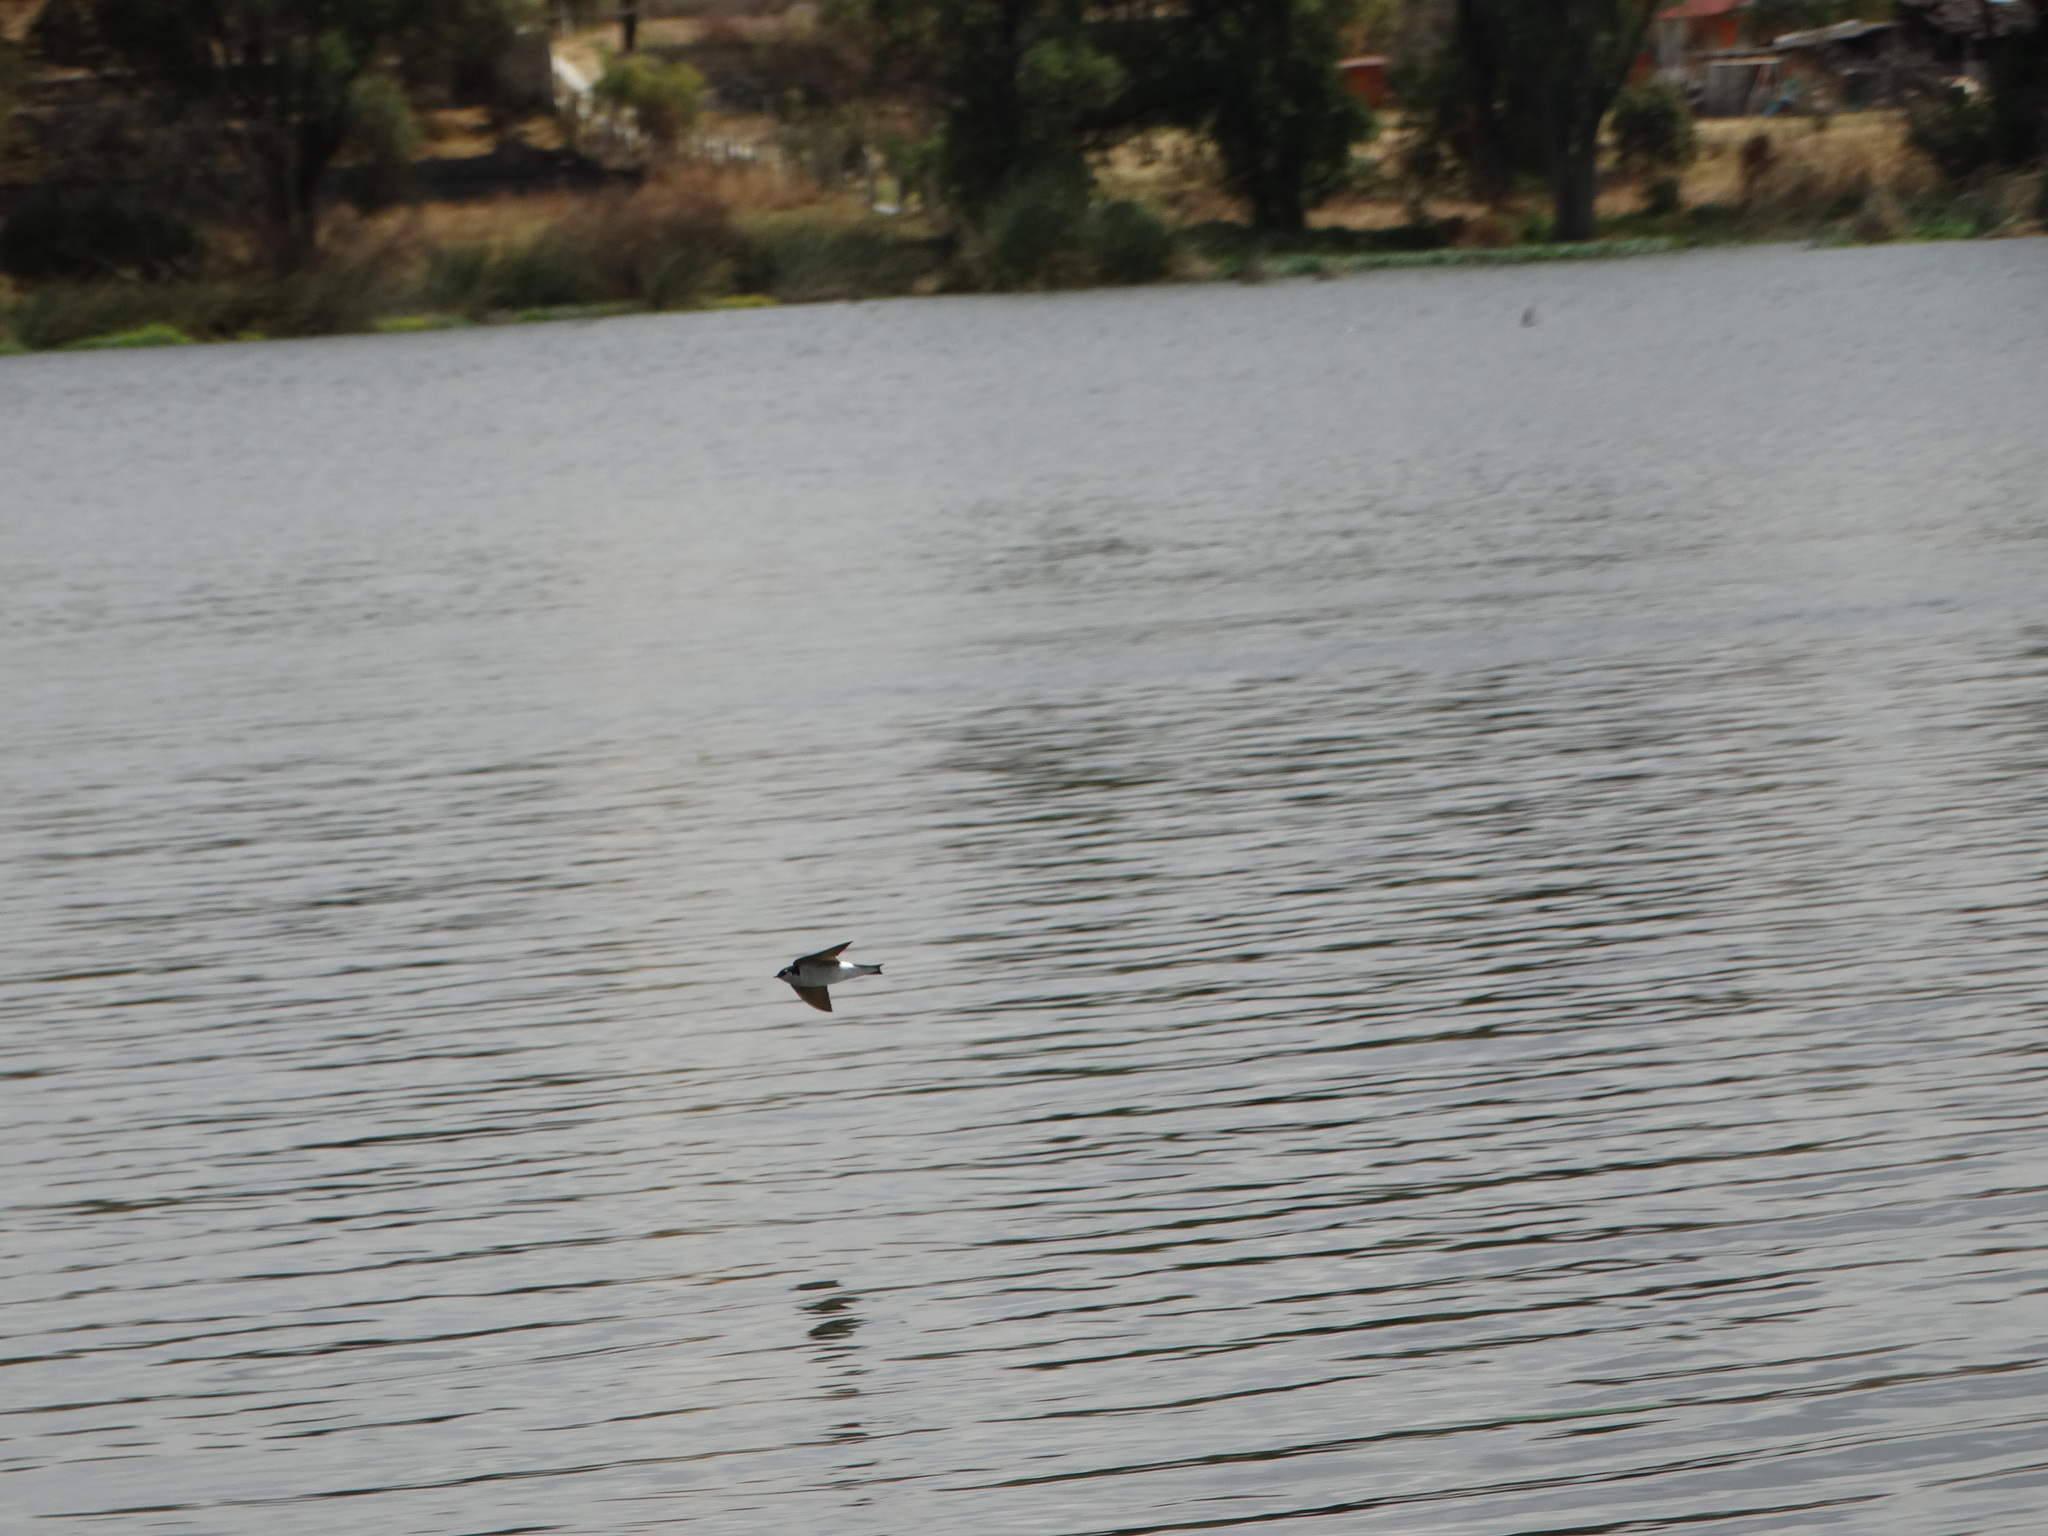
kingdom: Animalia
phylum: Chordata
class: Aves
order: Passeriformes
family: Hirundinidae
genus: Tachycineta
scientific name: Tachycineta thalassina
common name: Violet-green swallow
